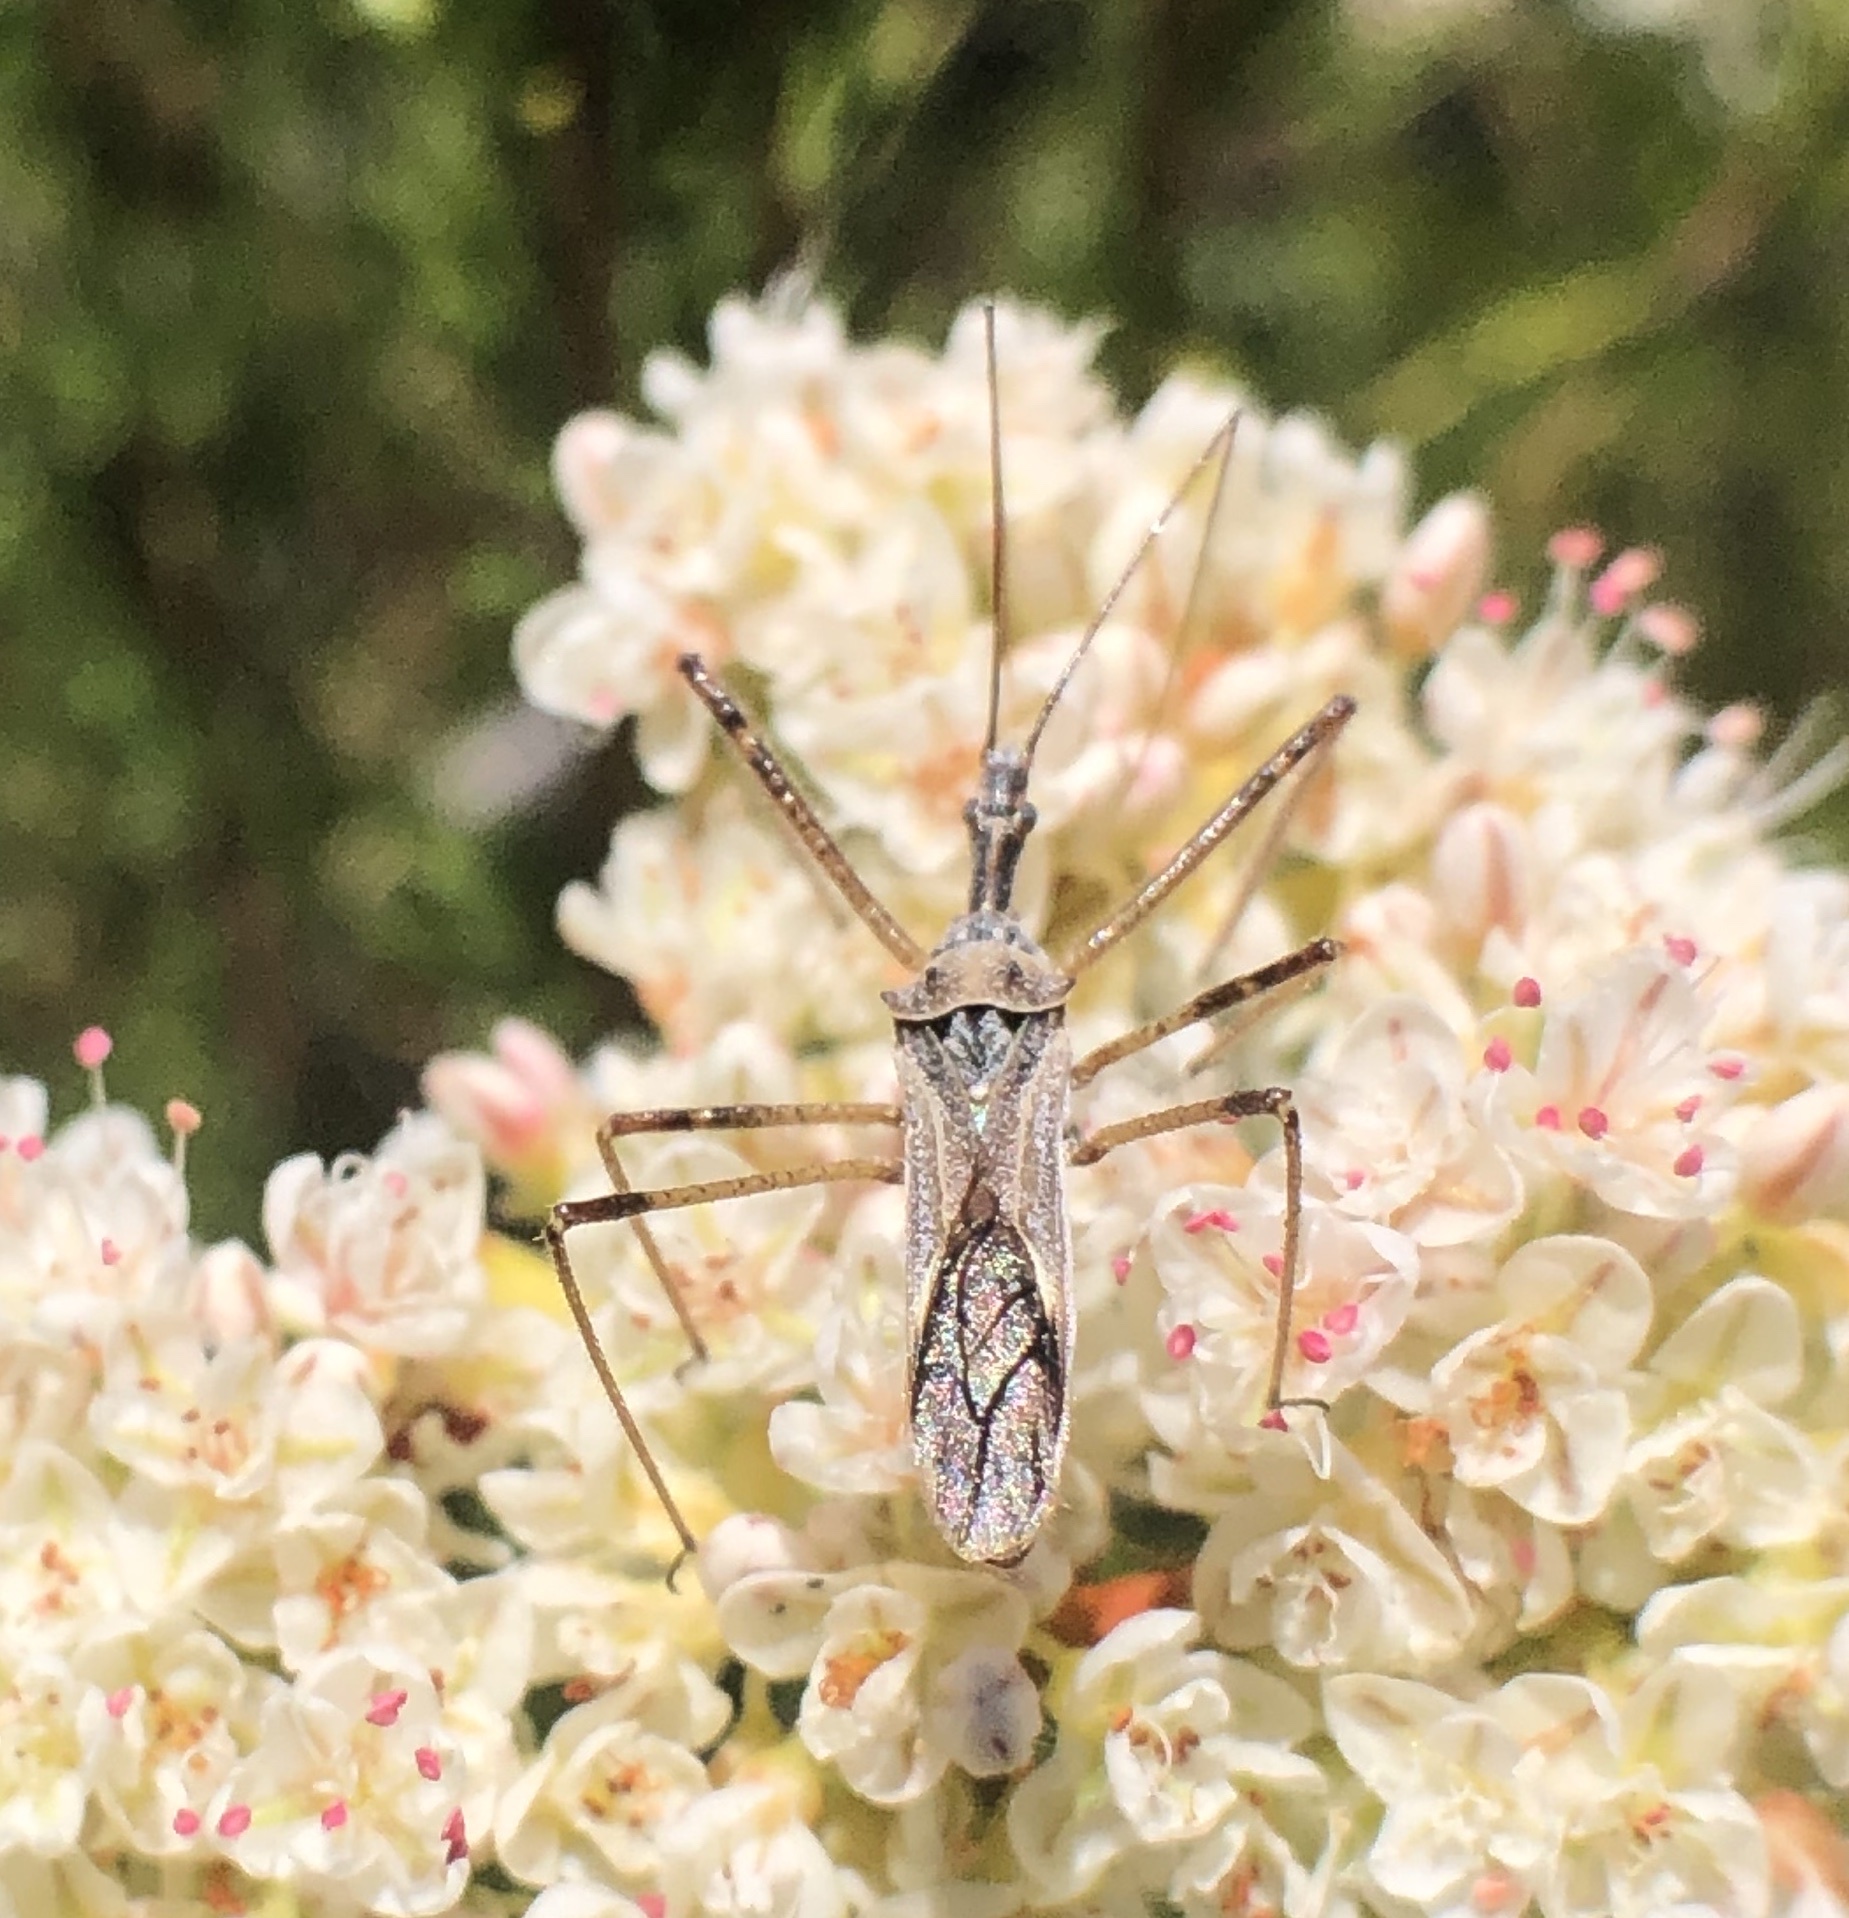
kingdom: Animalia
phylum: Arthropoda
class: Insecta
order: Hemiptera
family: Reduviidae
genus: Zelus
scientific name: Zelus tetracanthus
